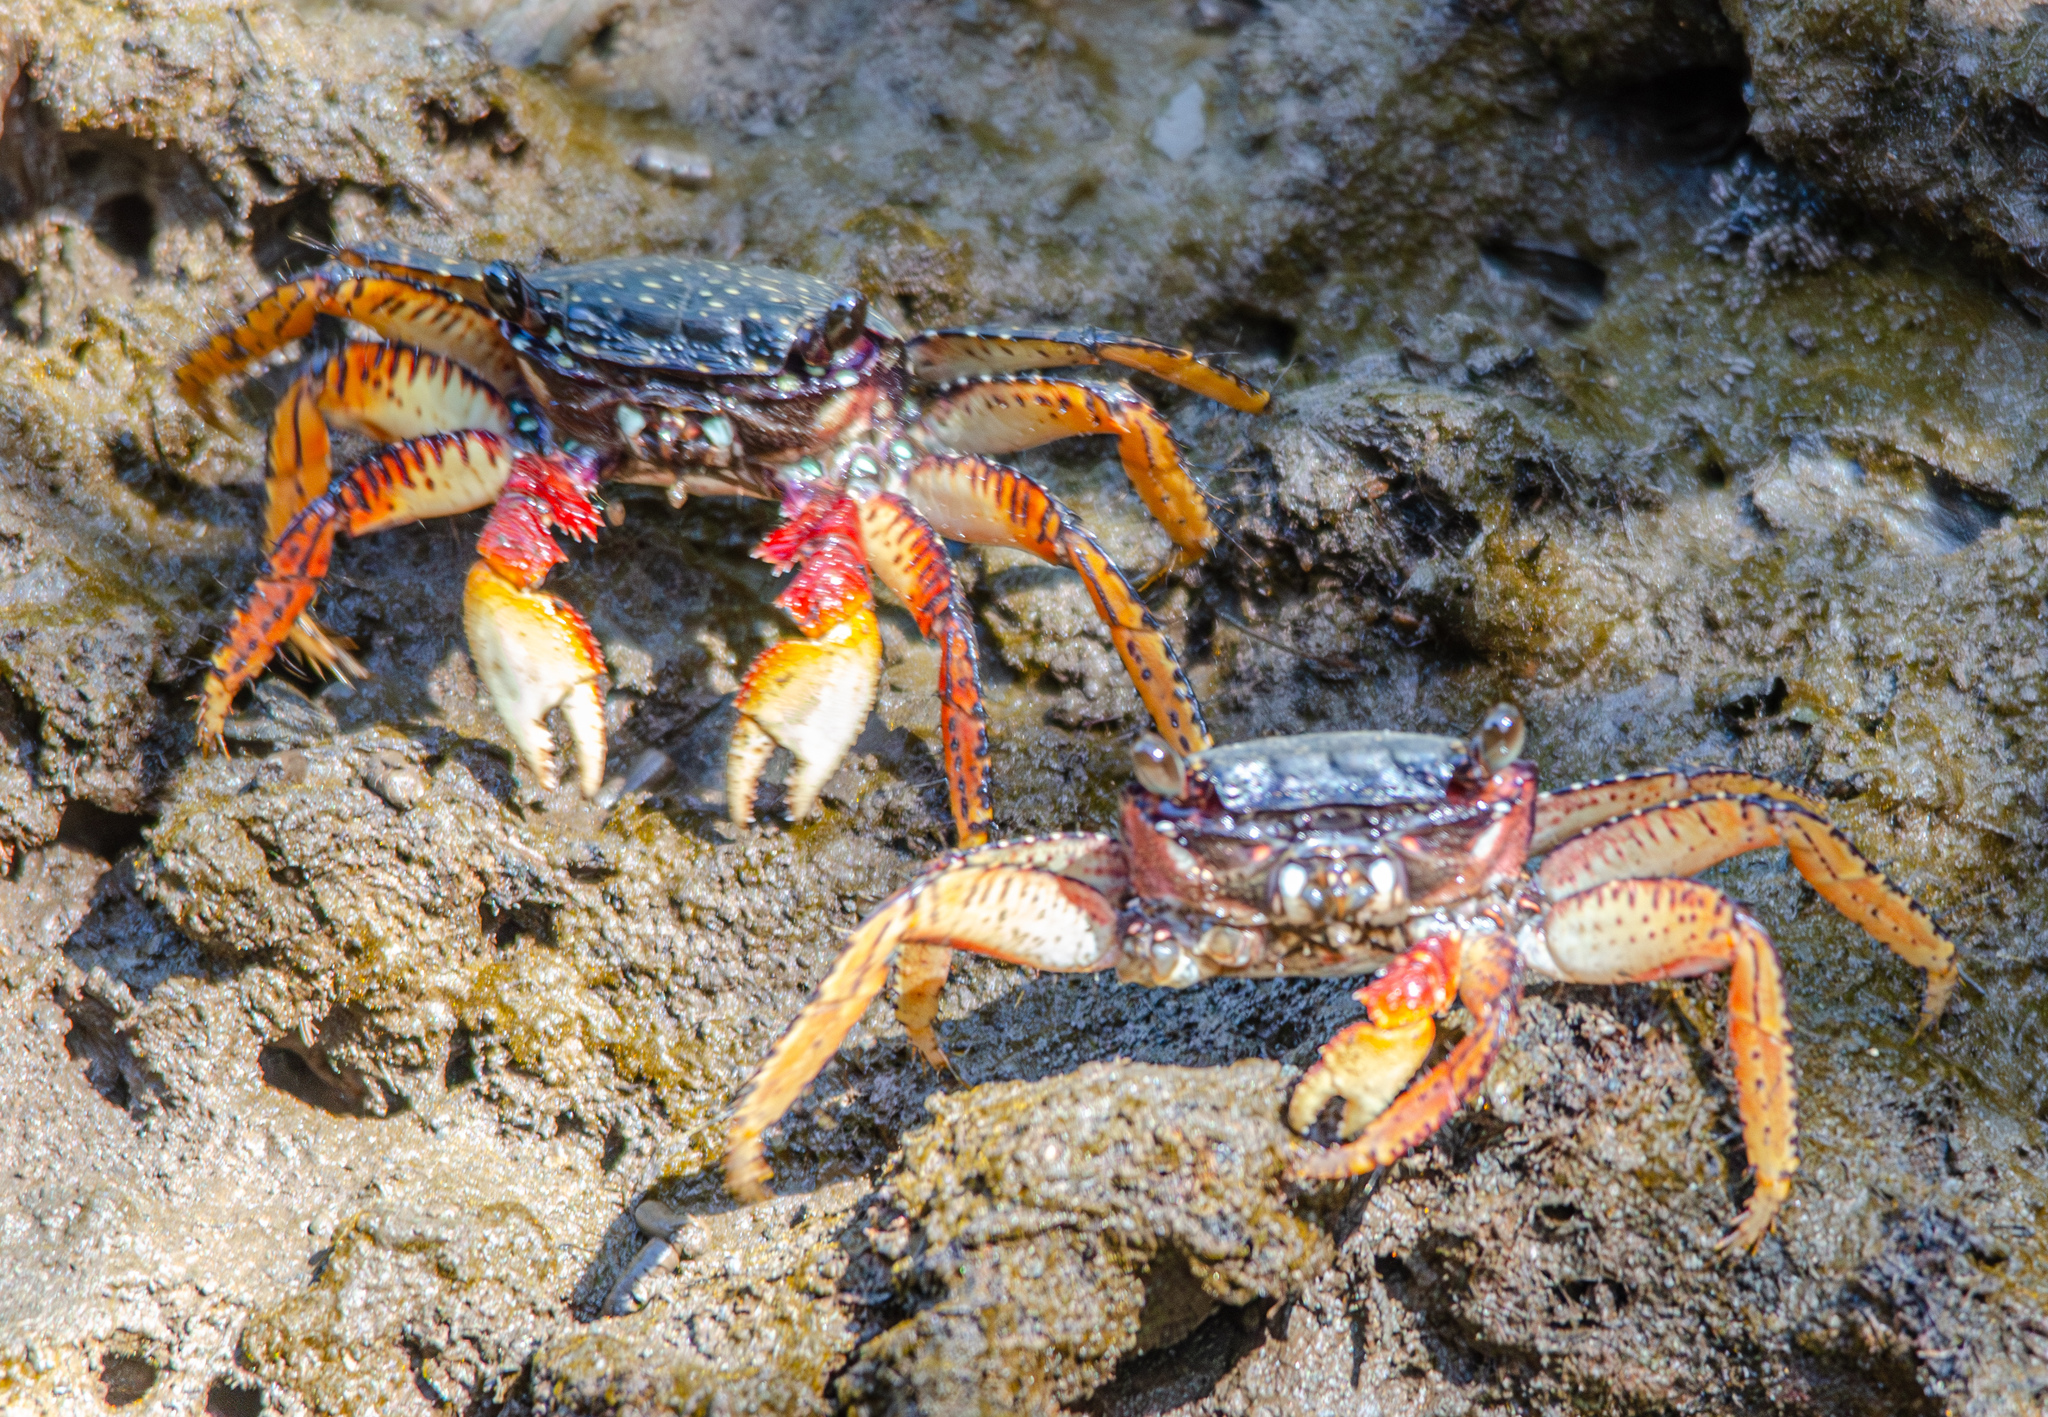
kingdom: Animalia
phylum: Arthropoda
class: Malacostraca
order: Decapoda
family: Grapsidae
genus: Goniopsis
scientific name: Goniopsis pulchra
